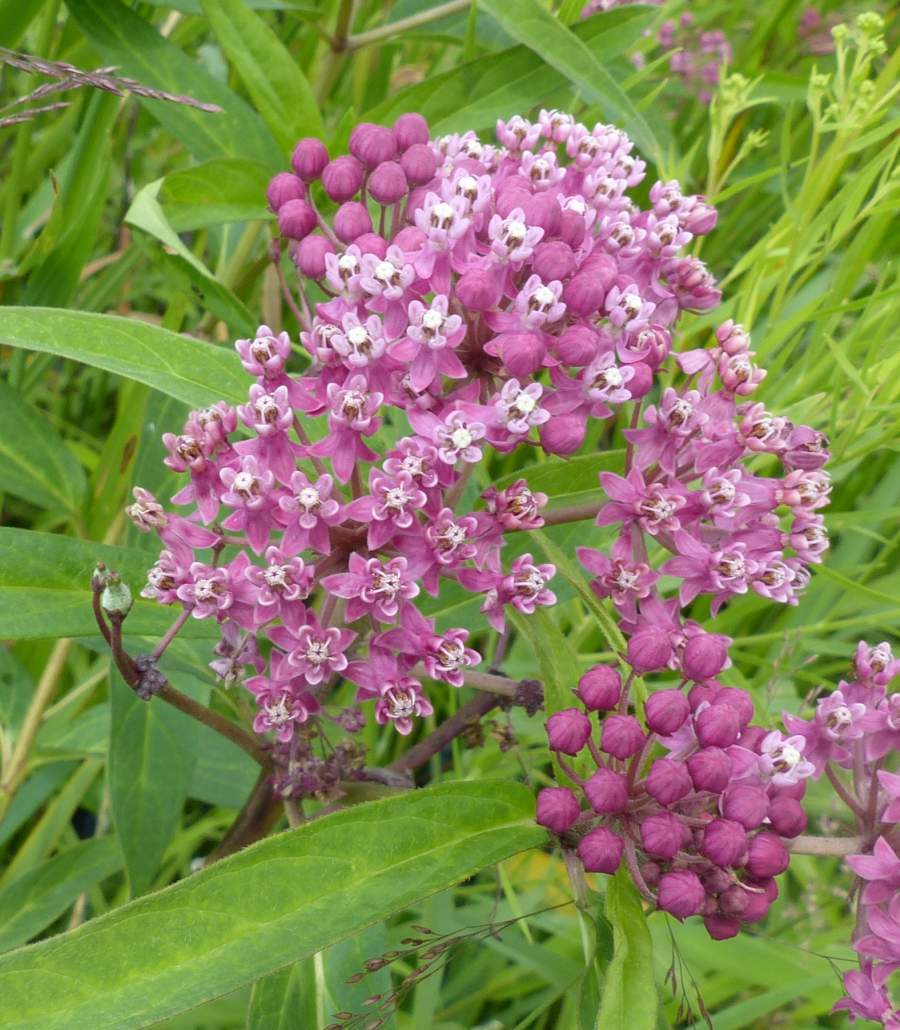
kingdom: Plantae
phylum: Tracheophyta
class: Magnoliopsida
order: Gentianales
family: Apocynaceae
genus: Asclepias
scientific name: Asclepias incarnata
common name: Swamp milkweed
